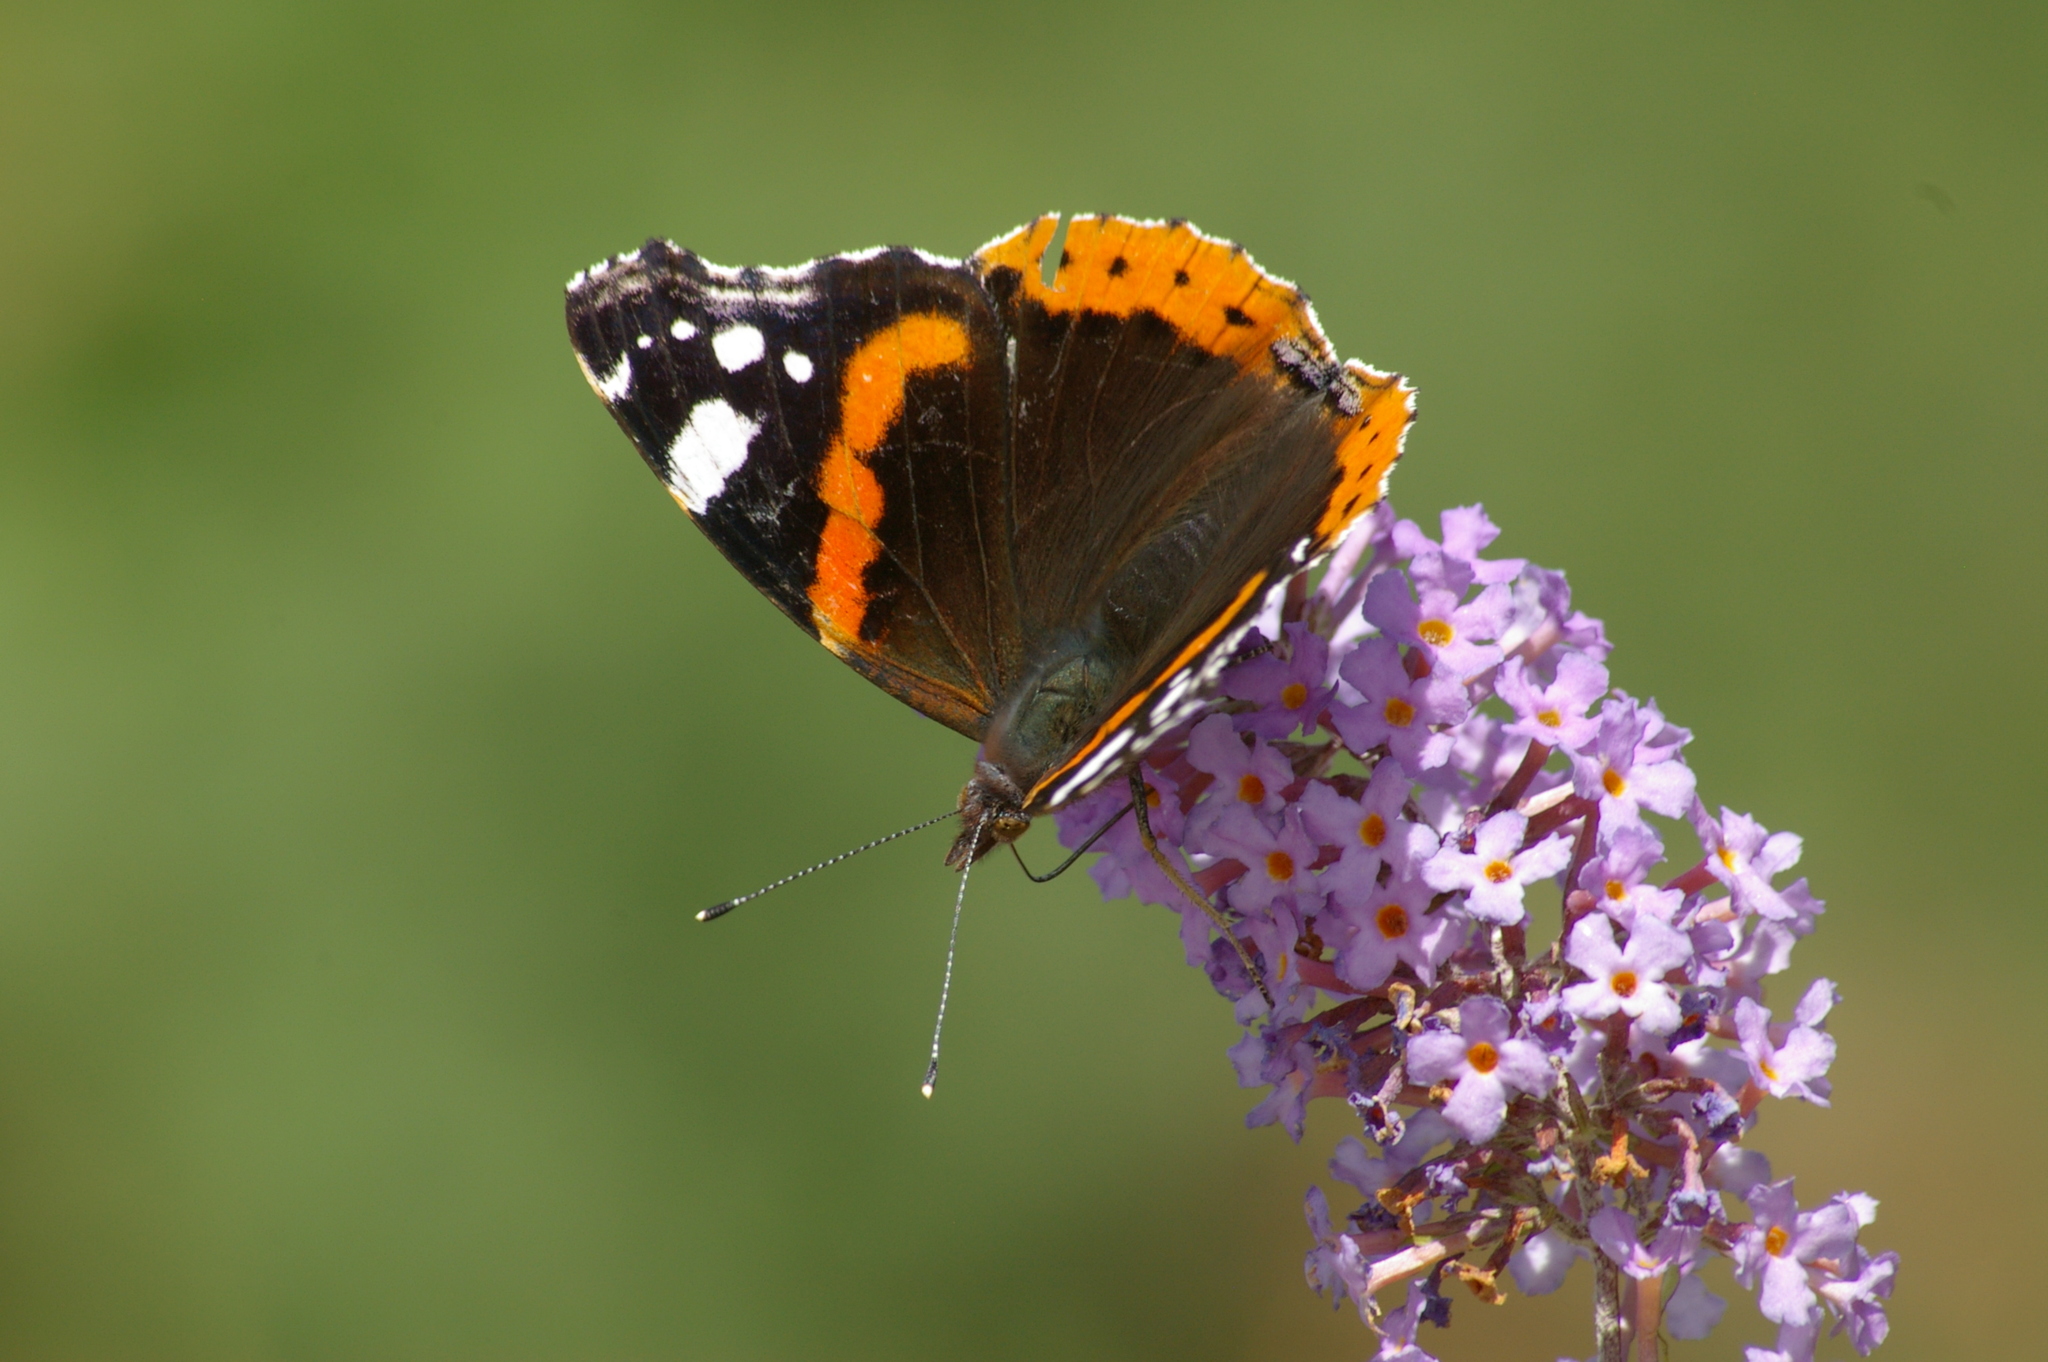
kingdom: Animalia
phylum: Arthropoda
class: Insecta
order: Lepidoptera
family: Nymphalidae
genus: Vanessa
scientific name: Vanessa atalanta
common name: Red admiral
